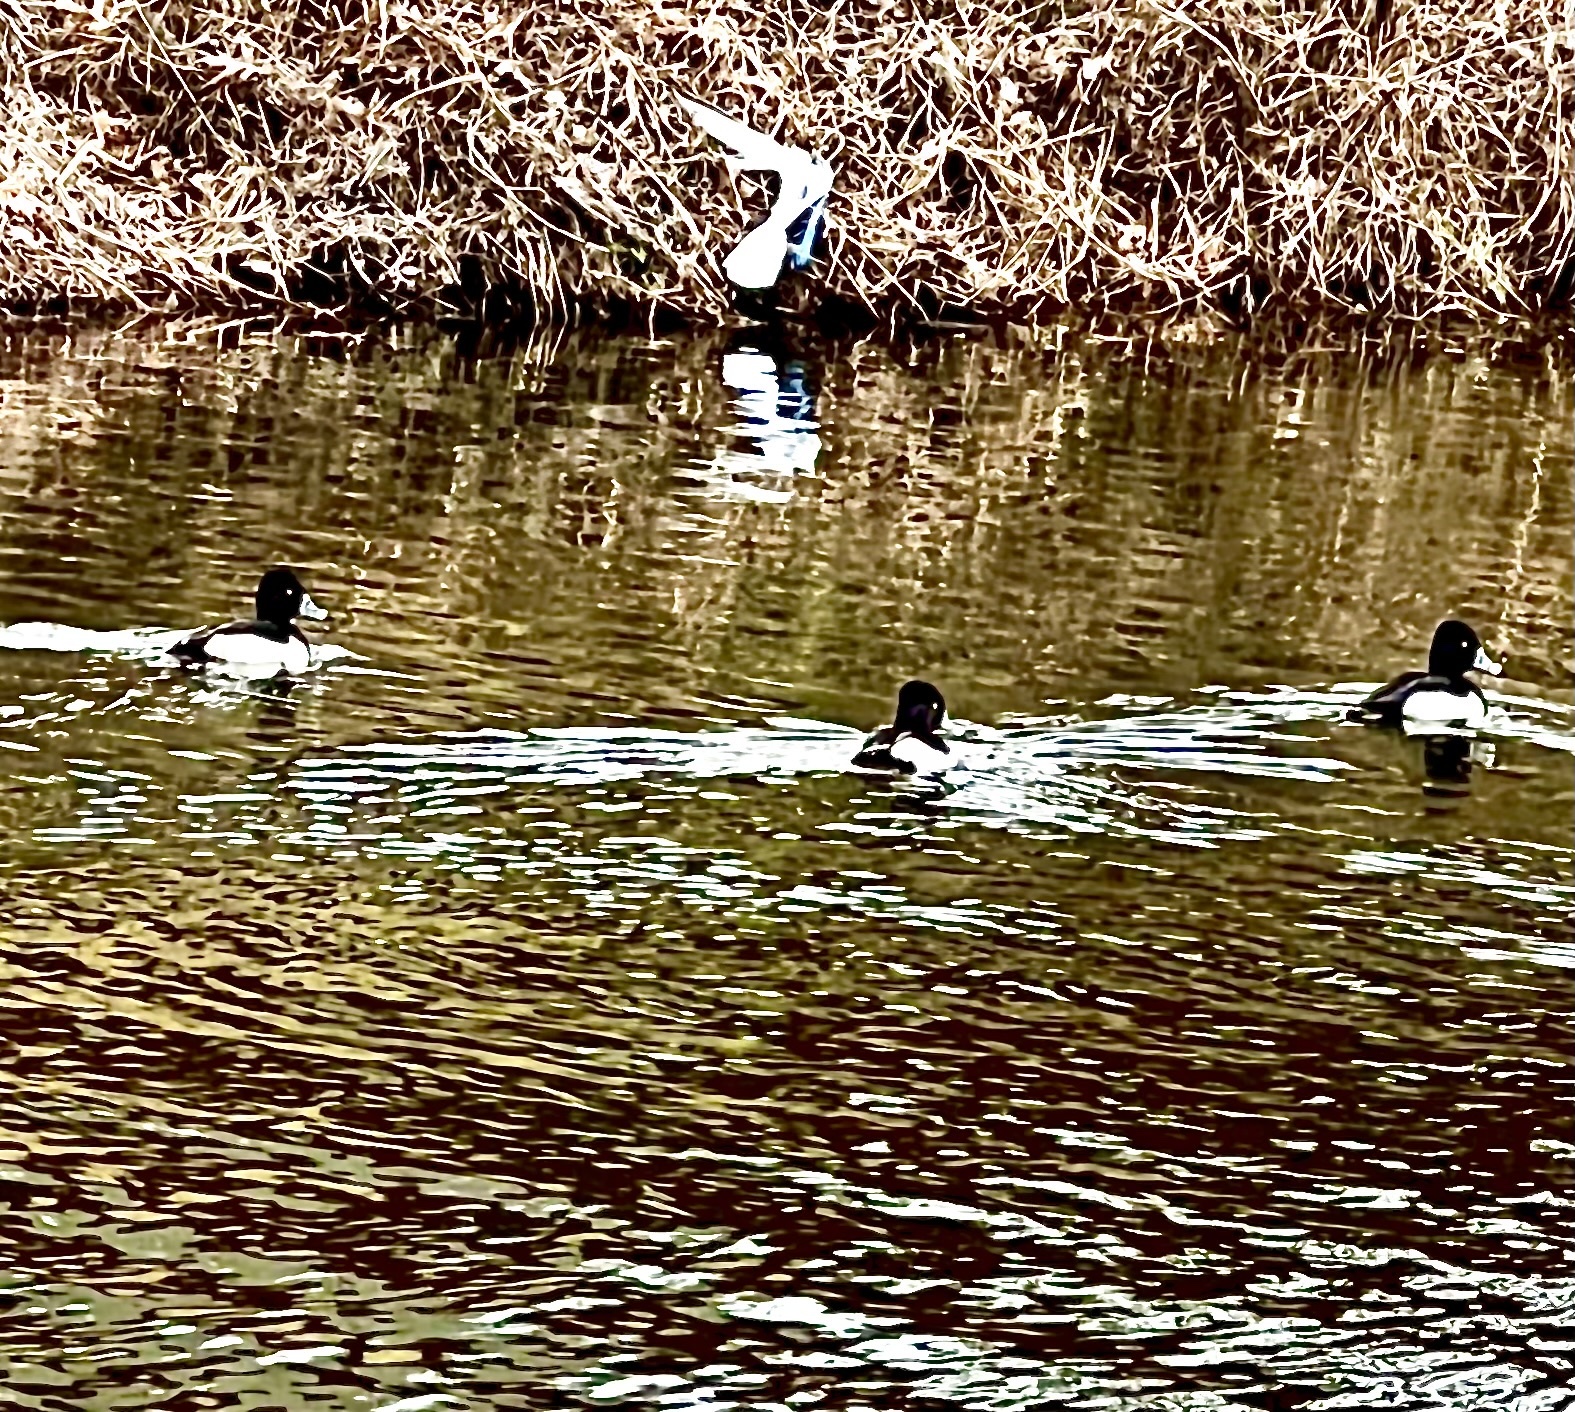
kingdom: Animalia
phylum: Chordata
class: Aves
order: Anseriformes
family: Anatidae
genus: Aythya
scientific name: Aythya collaris
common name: Ring-necked duck
